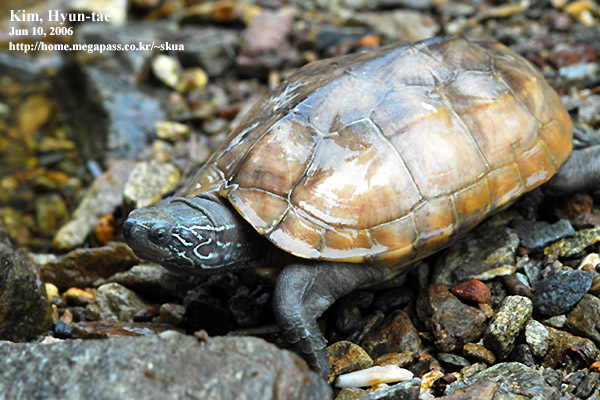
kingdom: Animalia
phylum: Chordata
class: Testudines
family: Geoemydidae
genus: Mauremys
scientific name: Mauremys reevesii
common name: Chinese pond turtle
